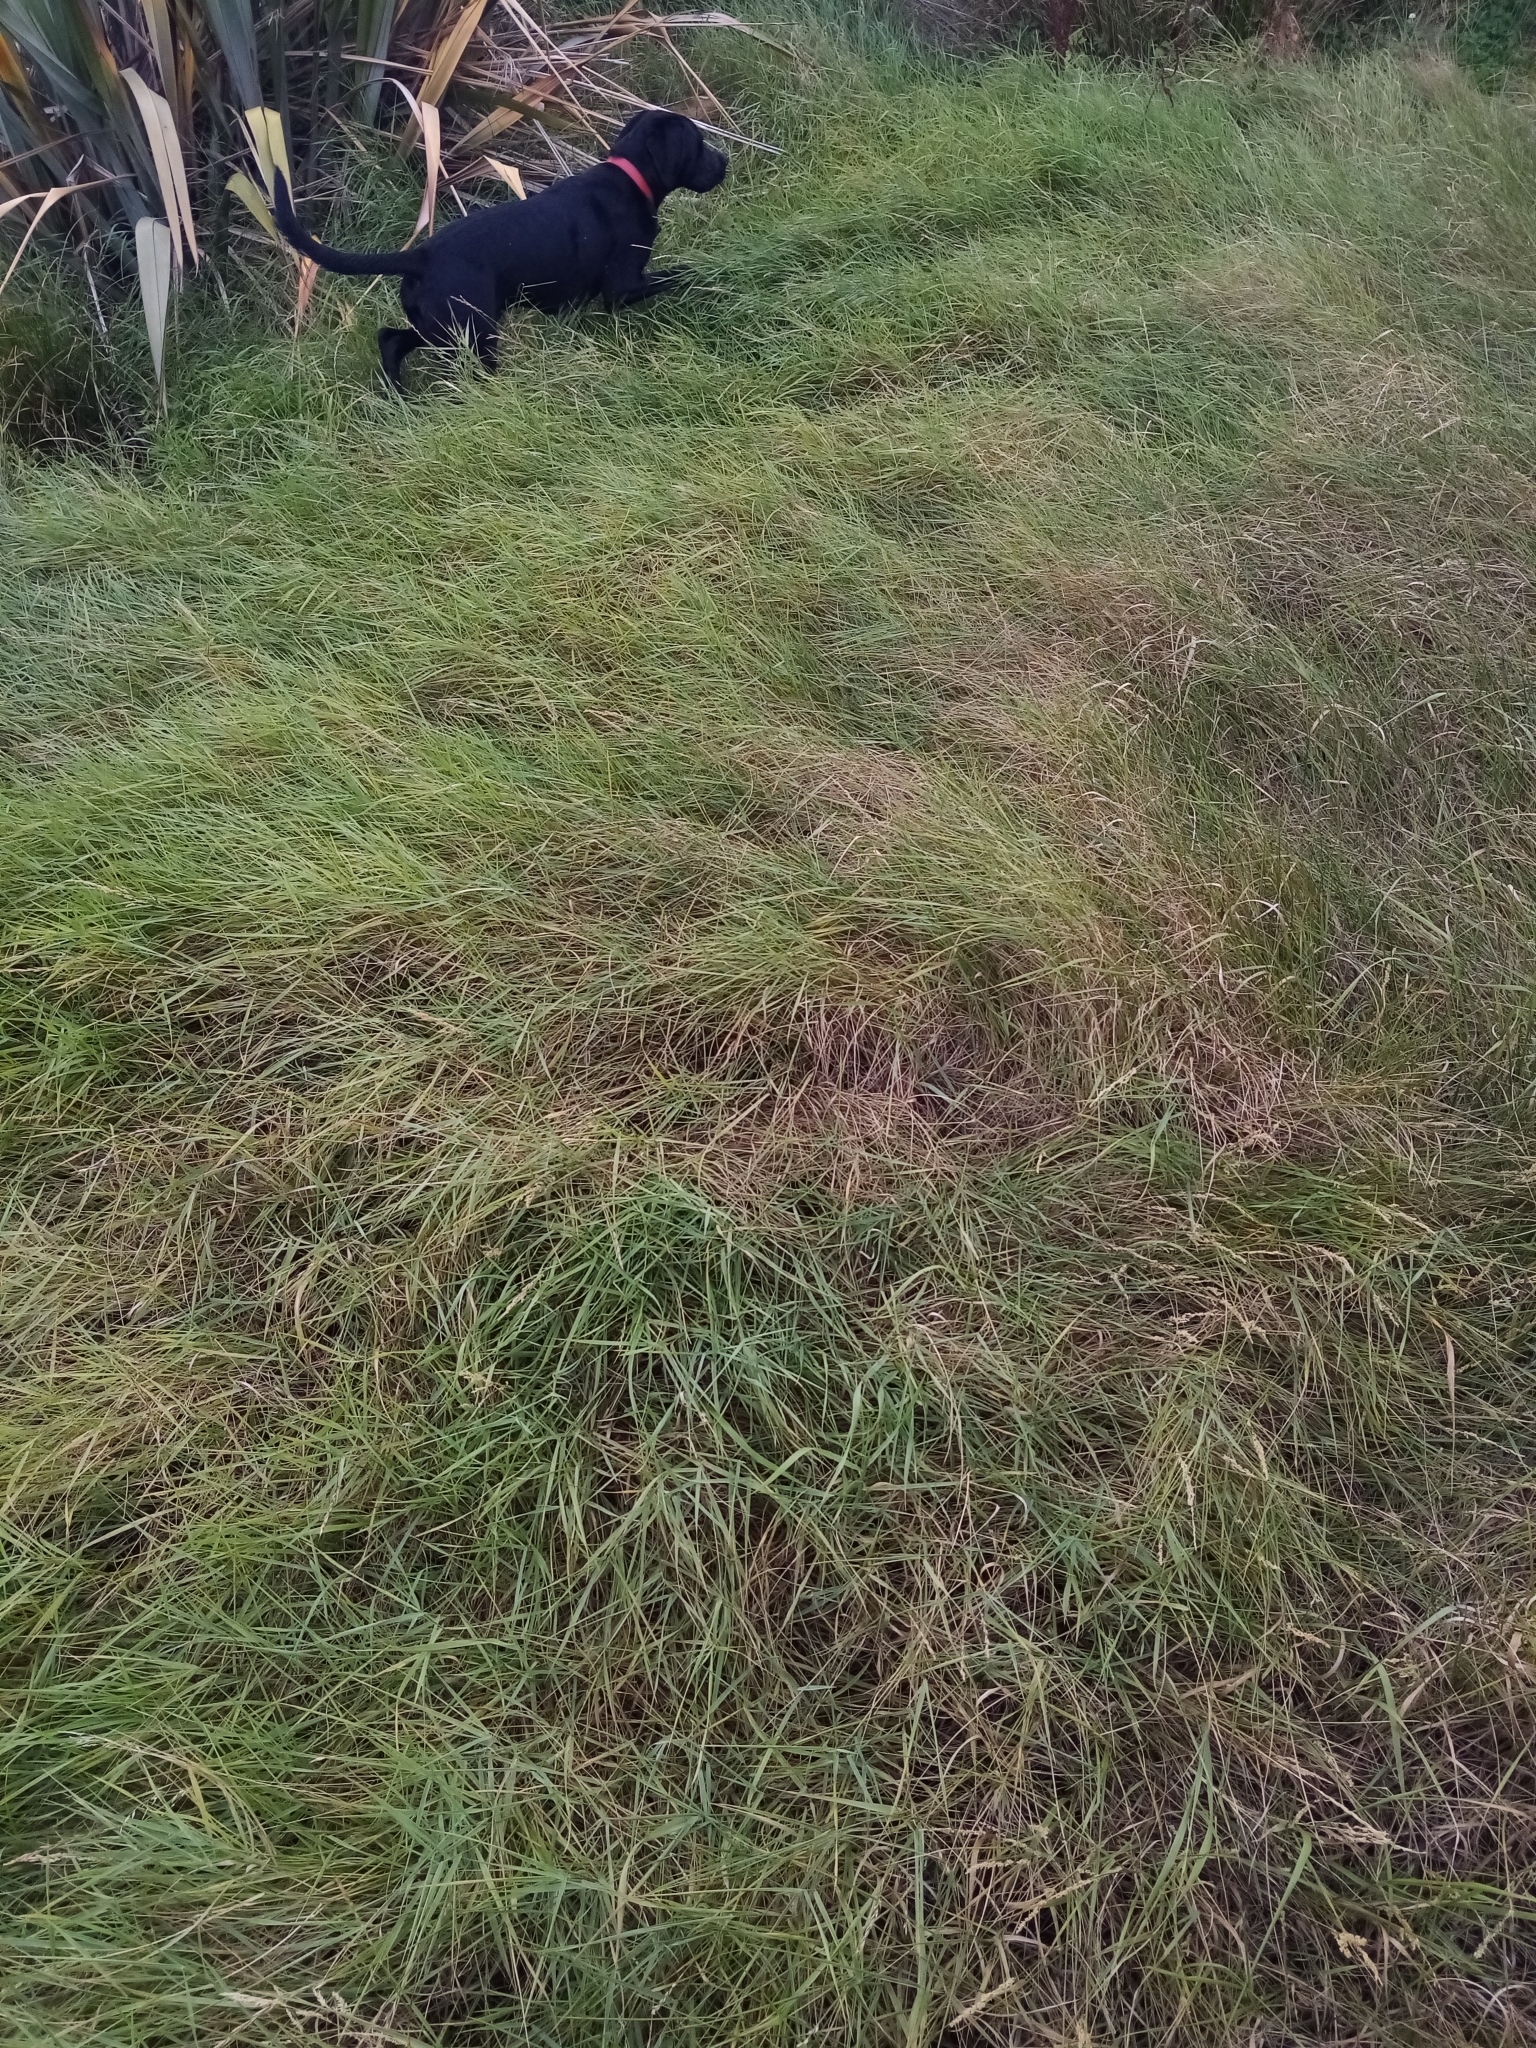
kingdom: Plantae
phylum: Tracheophyta
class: Liliopsida
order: Poales
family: Poaceae
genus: Agrostis
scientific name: Agrostis stolonifera
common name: Creeping bentgrass
